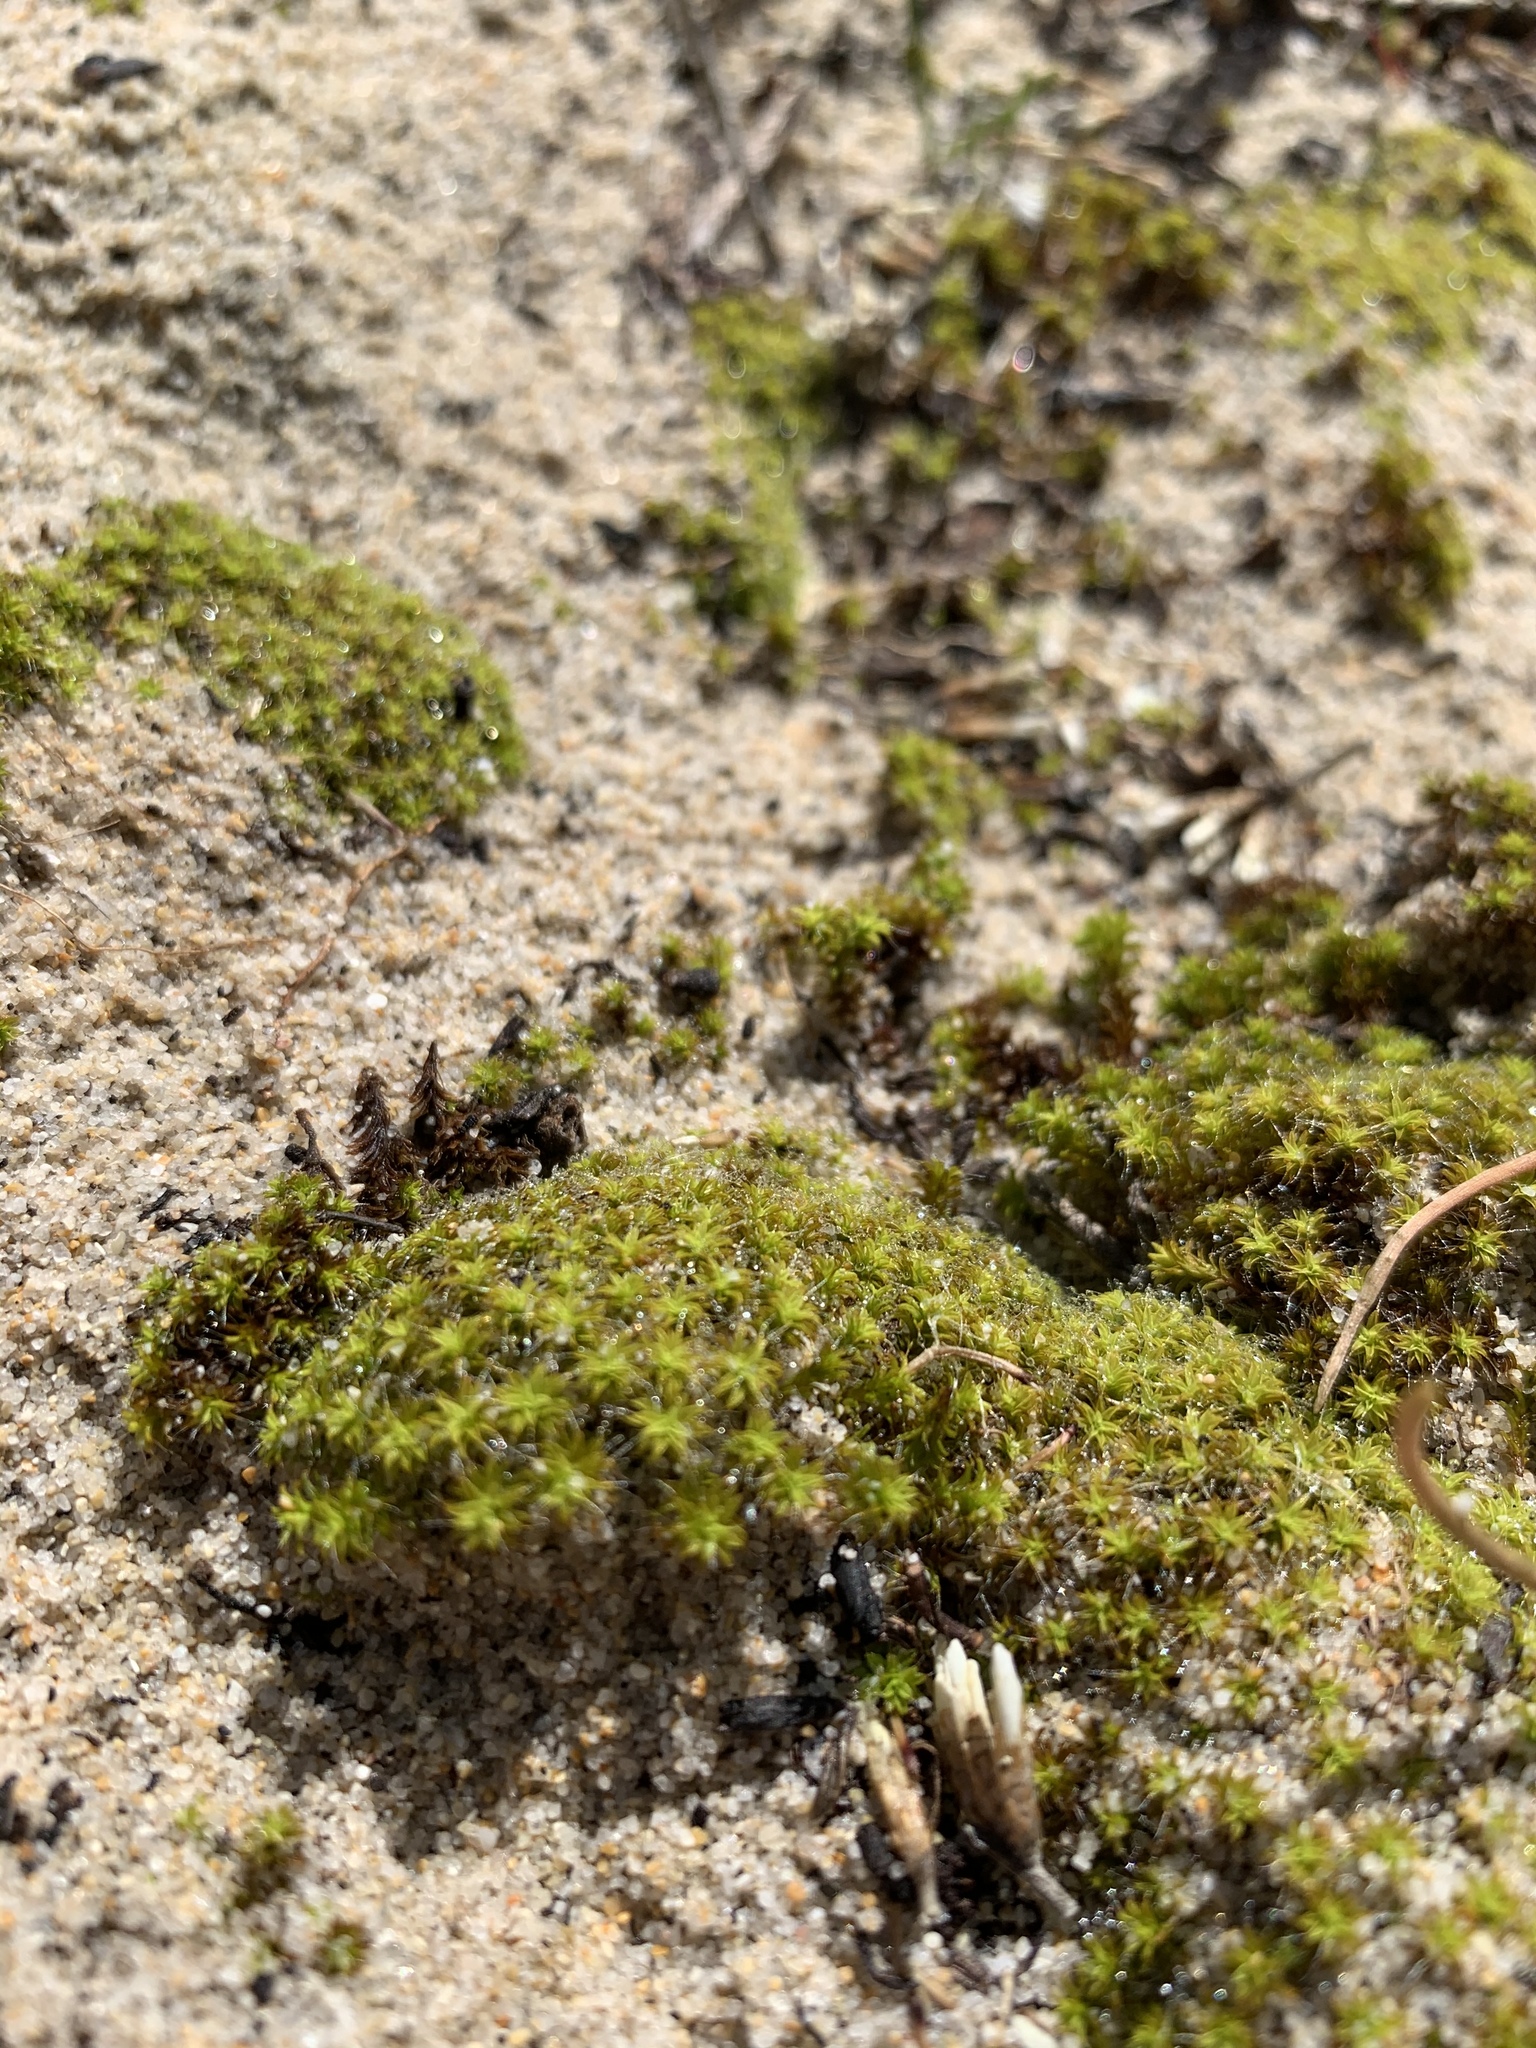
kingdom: Plantae
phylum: Bryophyta
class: Bryopsida
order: Pottiales
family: Pottiaceae
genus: Pseudocrossidium
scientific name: Pseudocrossidium crinitum
